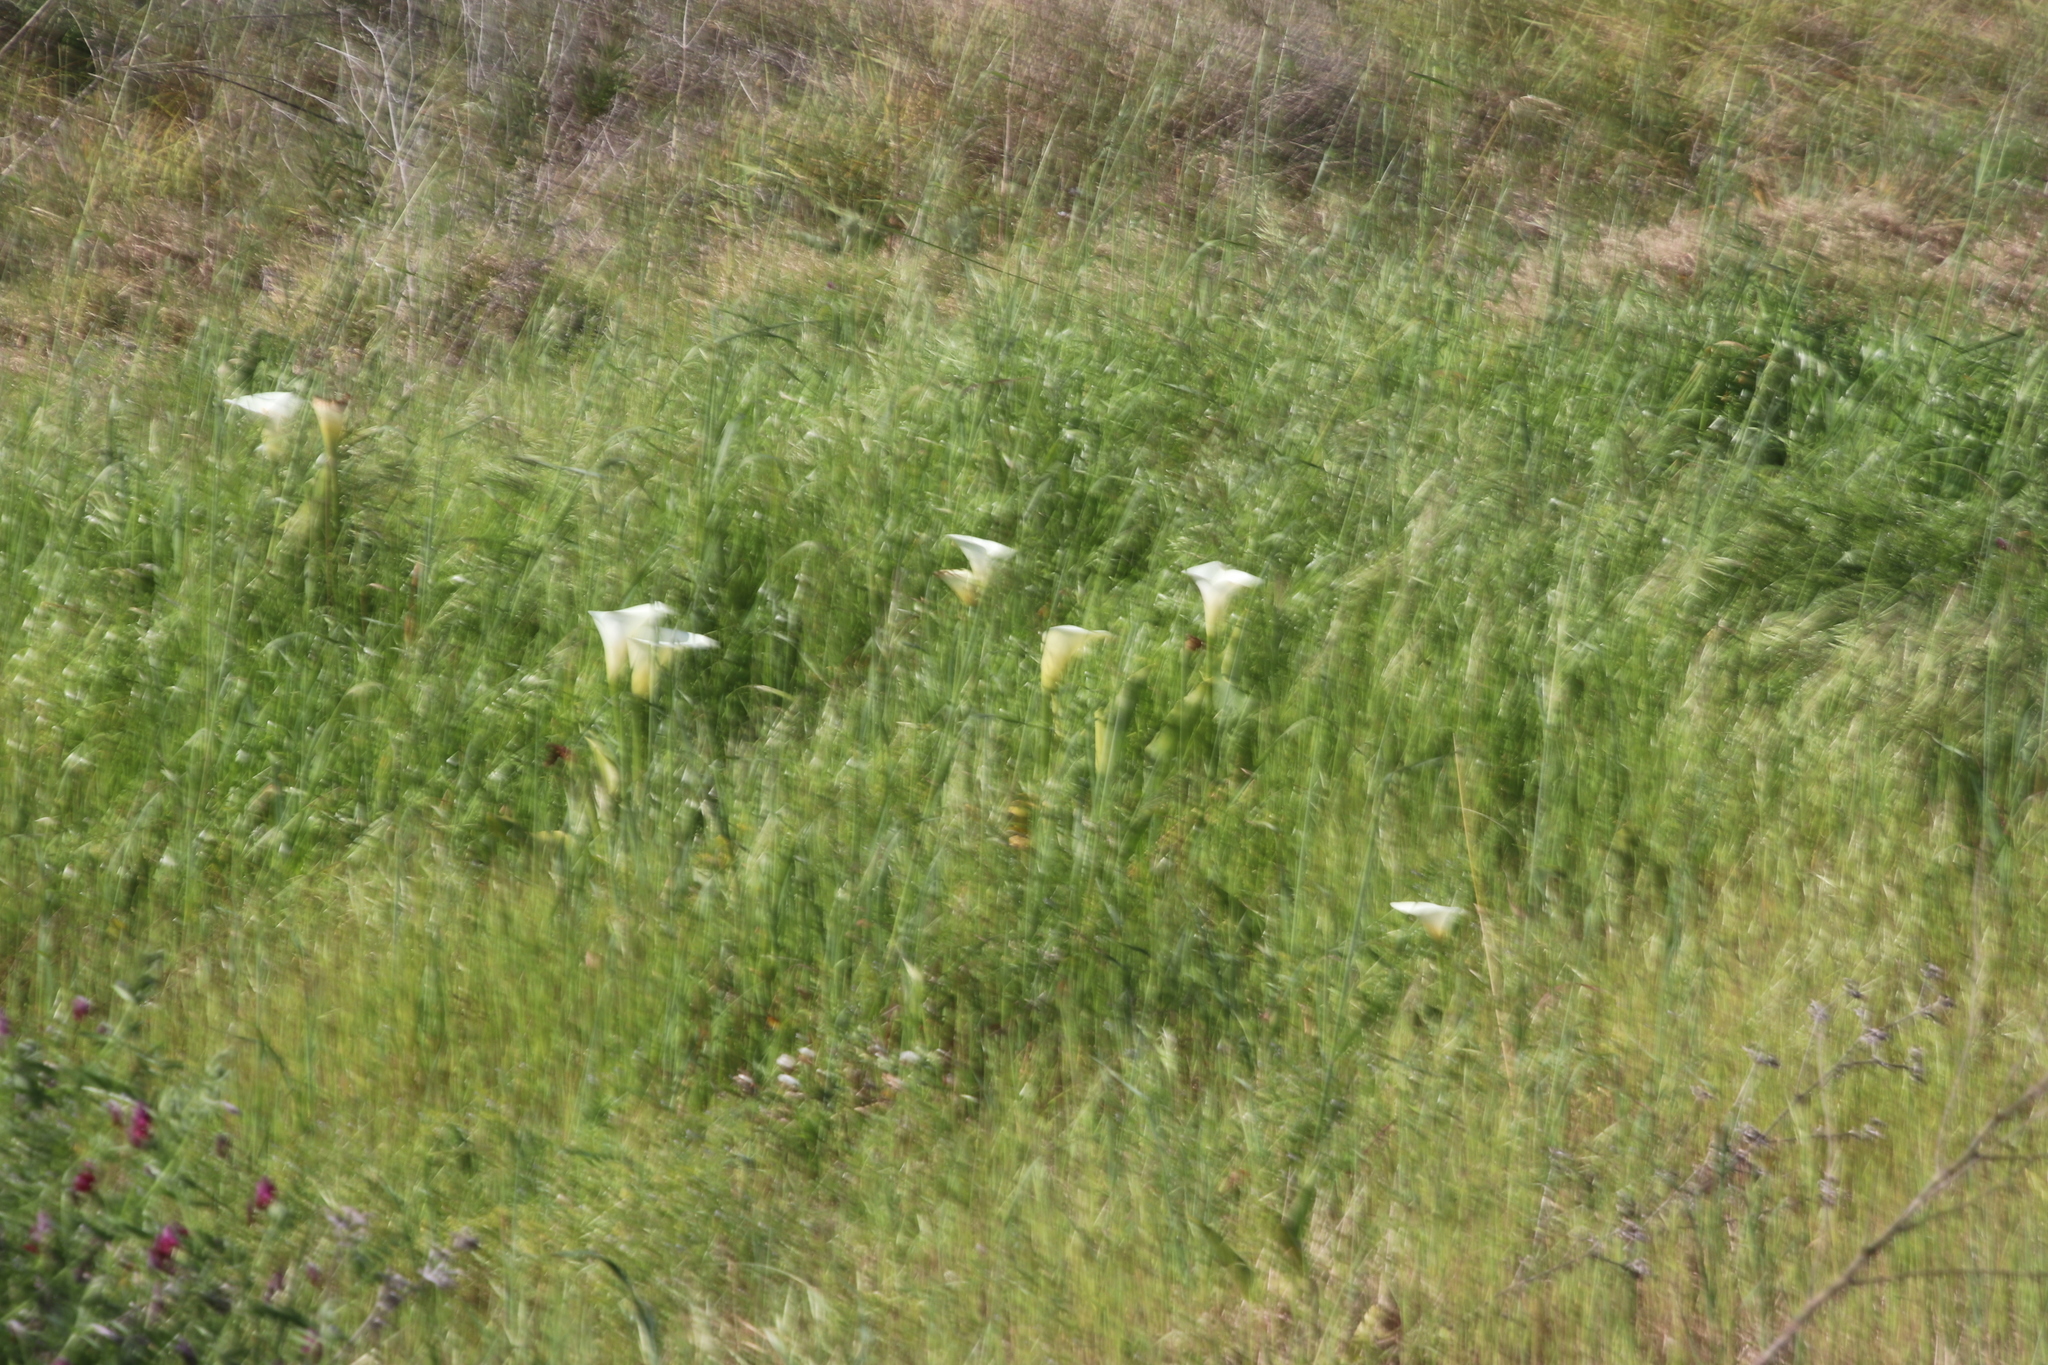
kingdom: Plantae
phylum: Tracheophyta
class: Liliopsida
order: Alismatales
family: Araceae
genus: Zantedeschia
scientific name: Zantedeschia aethiopica
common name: Altar-lily
